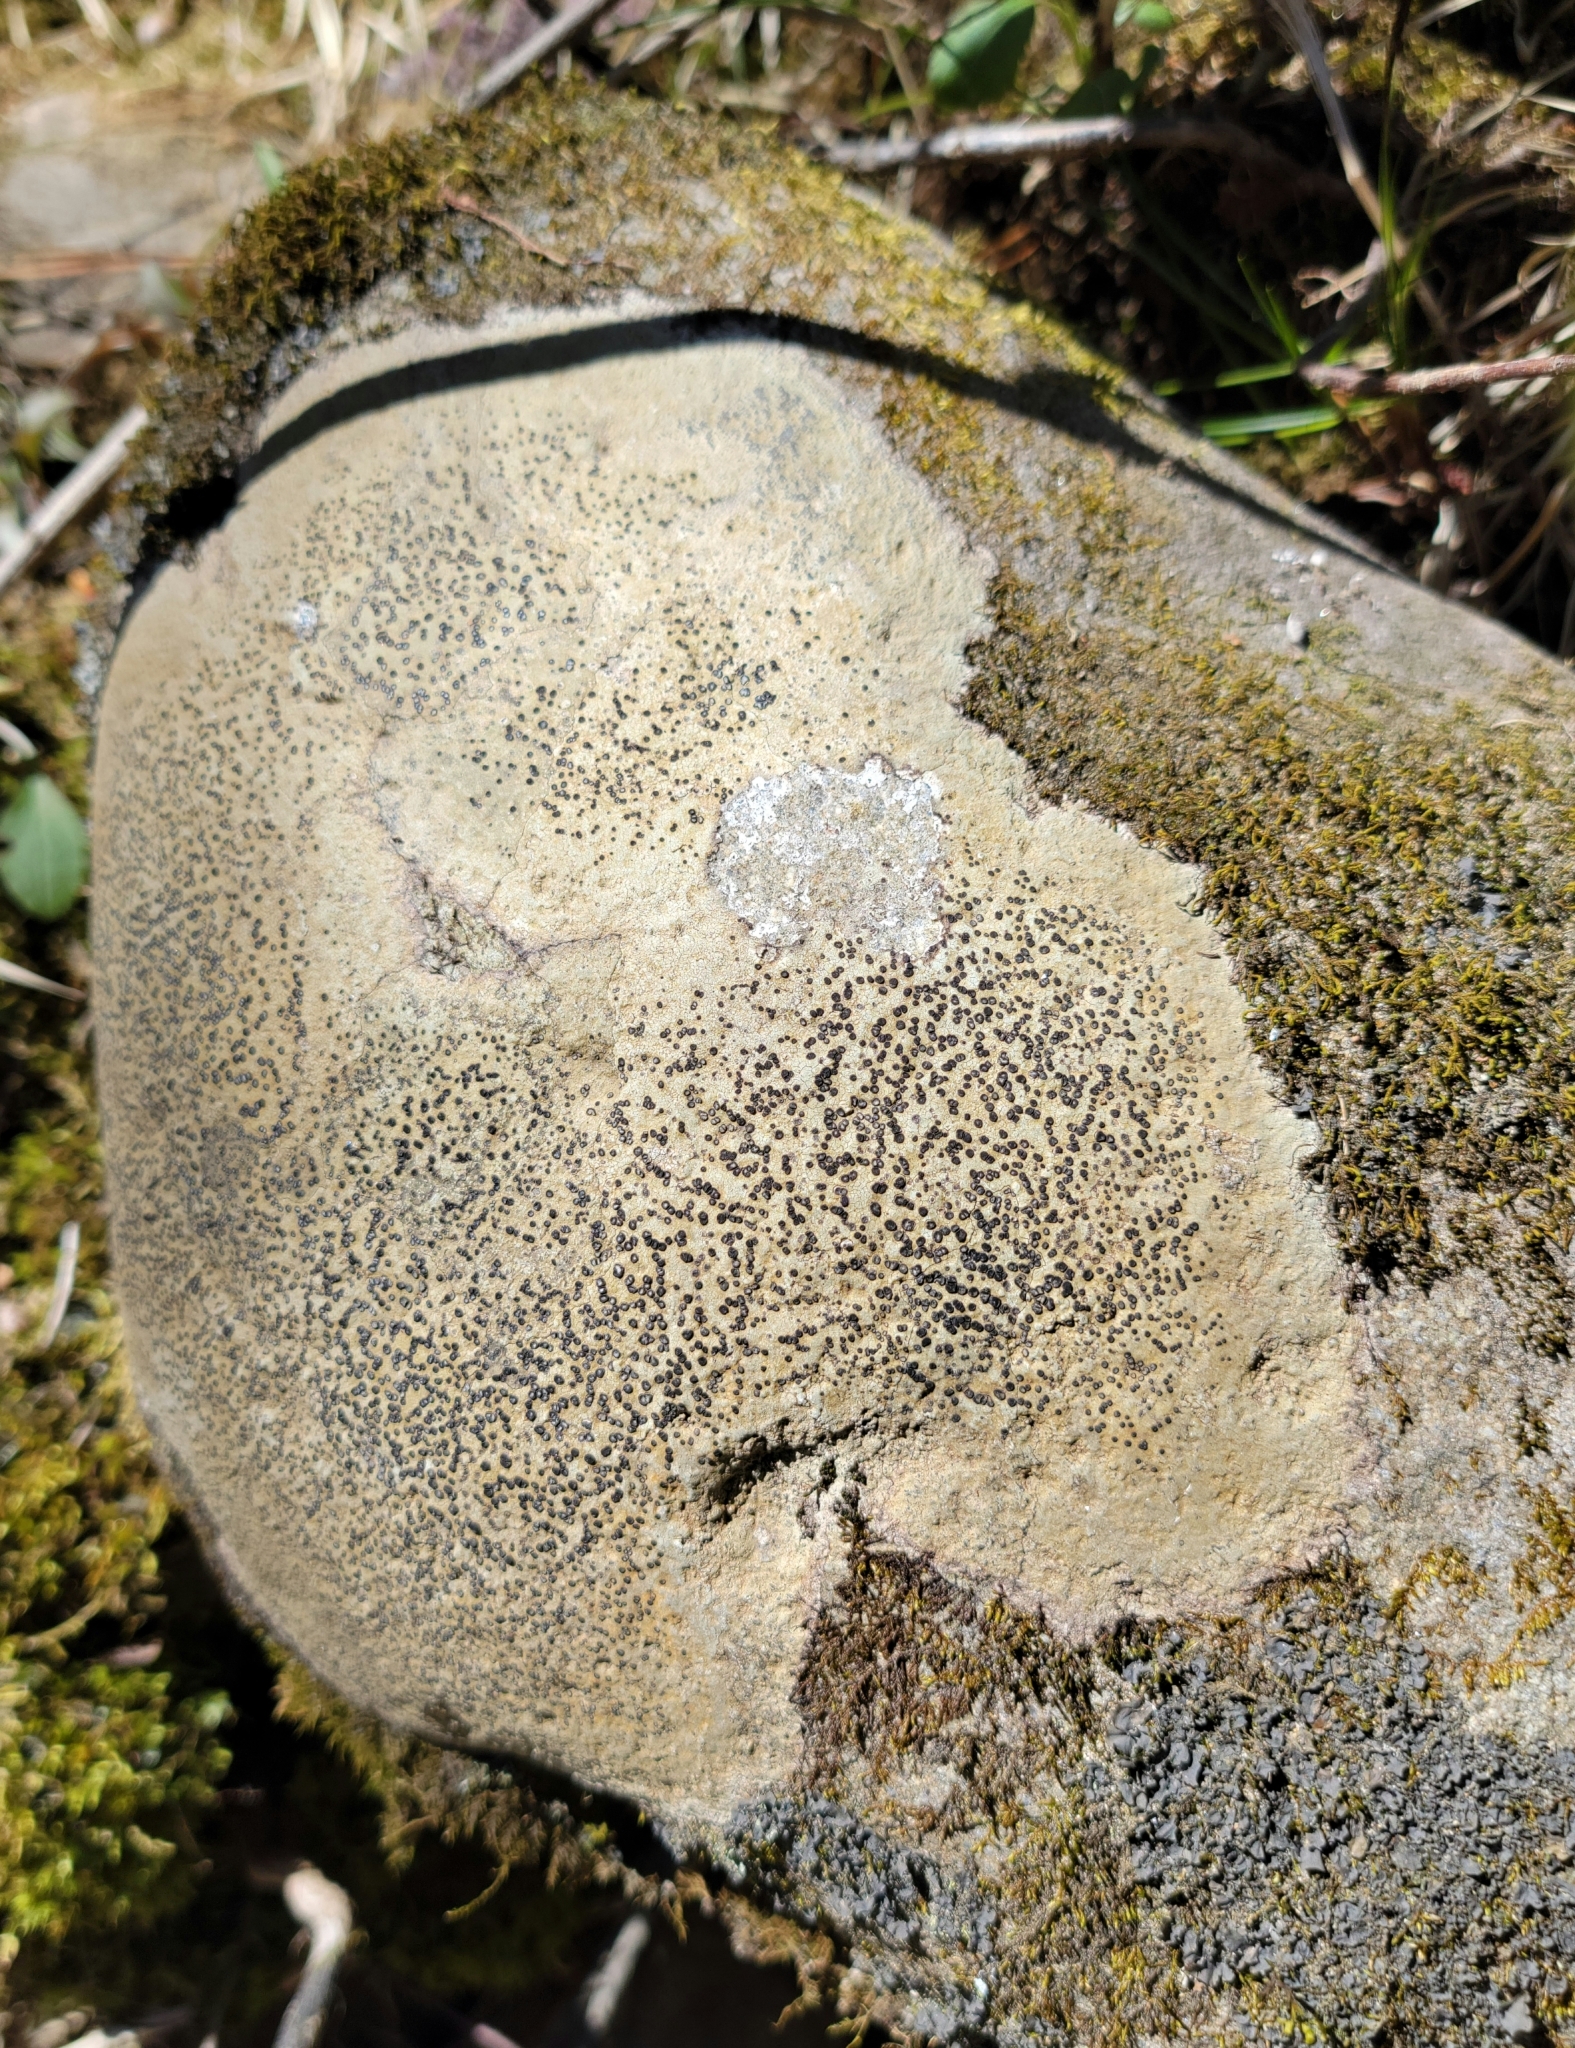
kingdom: Fungi
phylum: Ascomycota
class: Lecanoromycetes
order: Lecideales
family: Lecideaceae
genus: Porpidia
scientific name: Porpidia albocaerulescens
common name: Smokey-eyed boulder lichen
